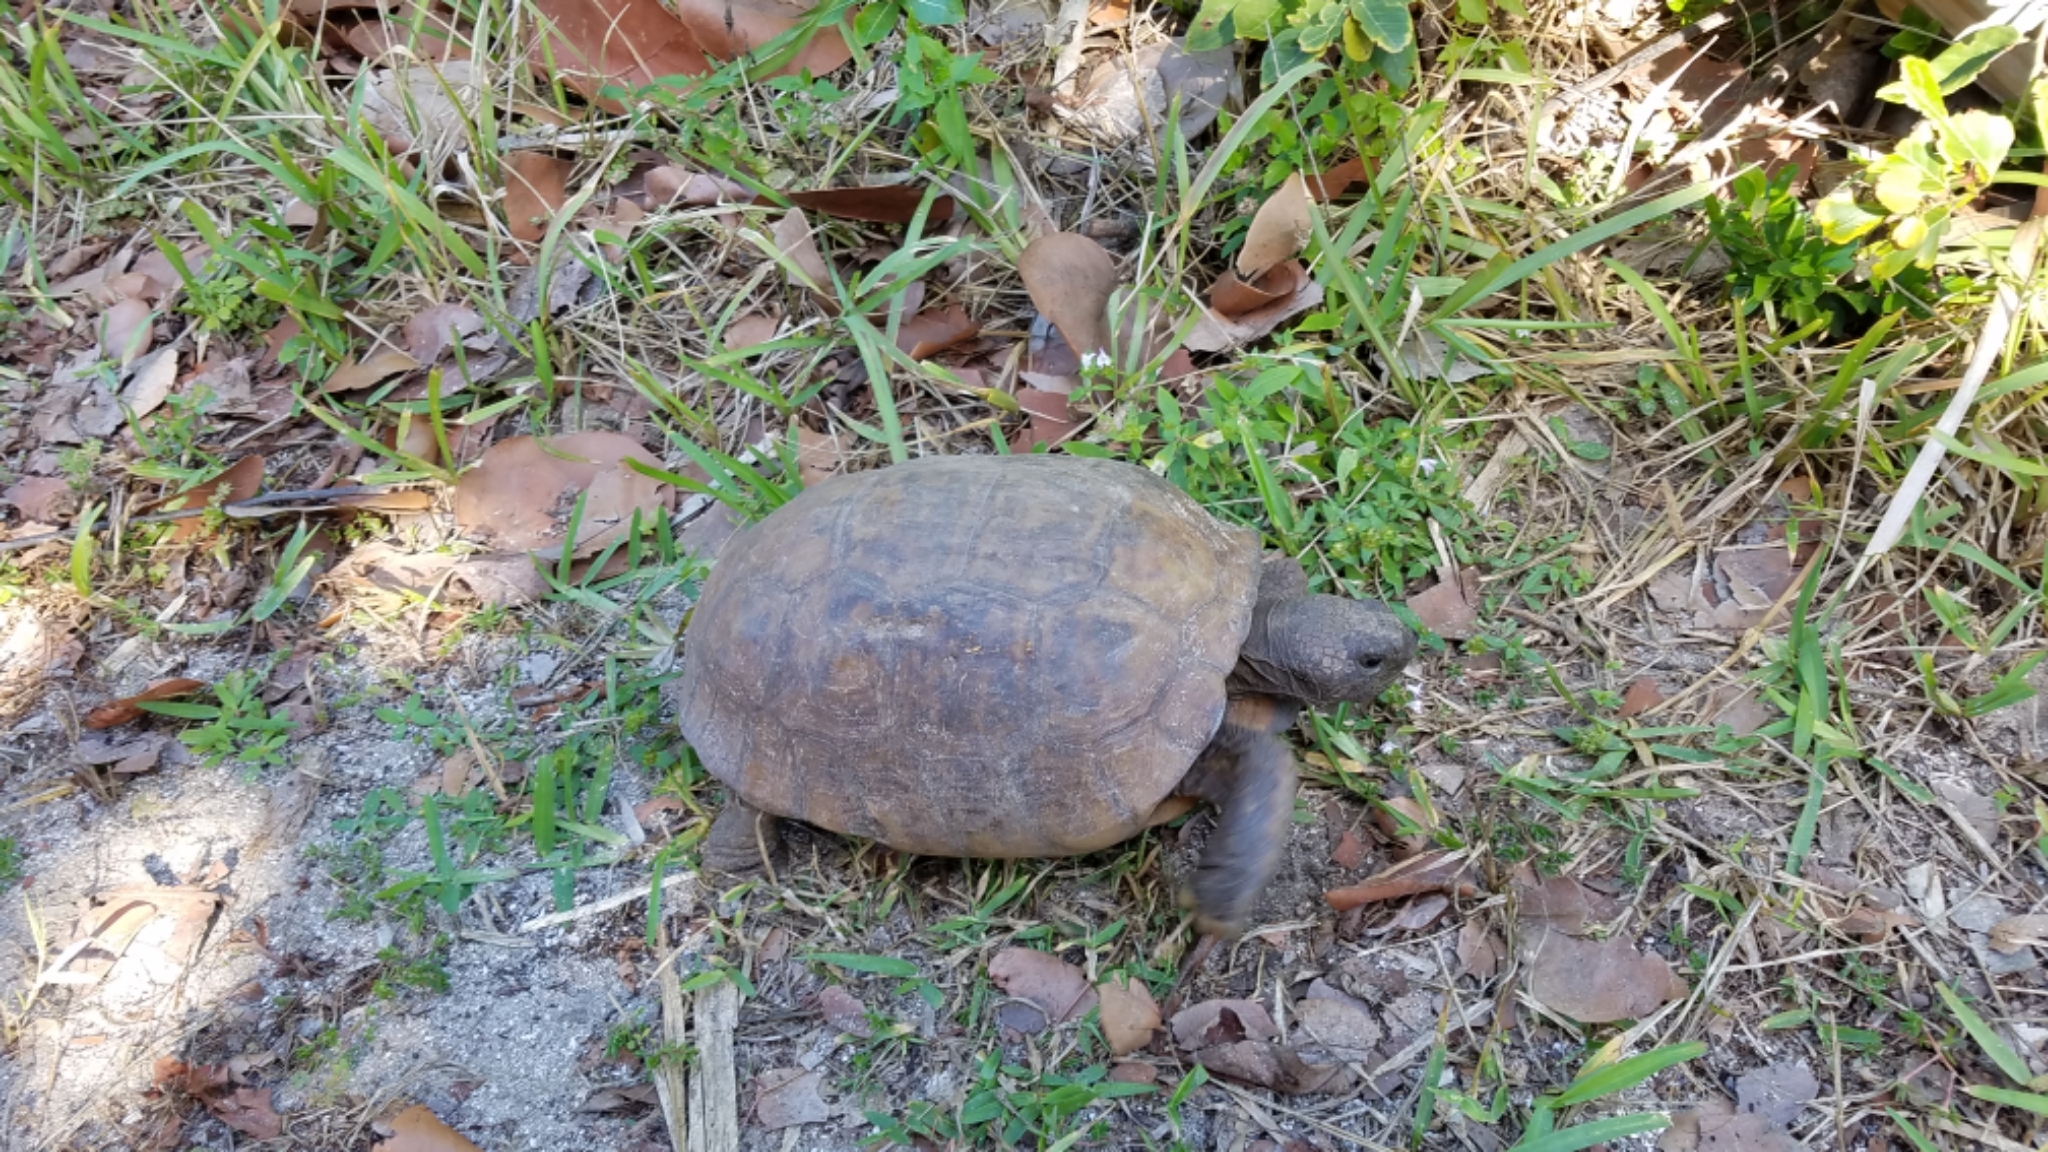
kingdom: Animalia
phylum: Chordata
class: Testudines
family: Testudinidae
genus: Gopherus
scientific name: Gopherus polyphemus
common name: Florida gopher tortoise
